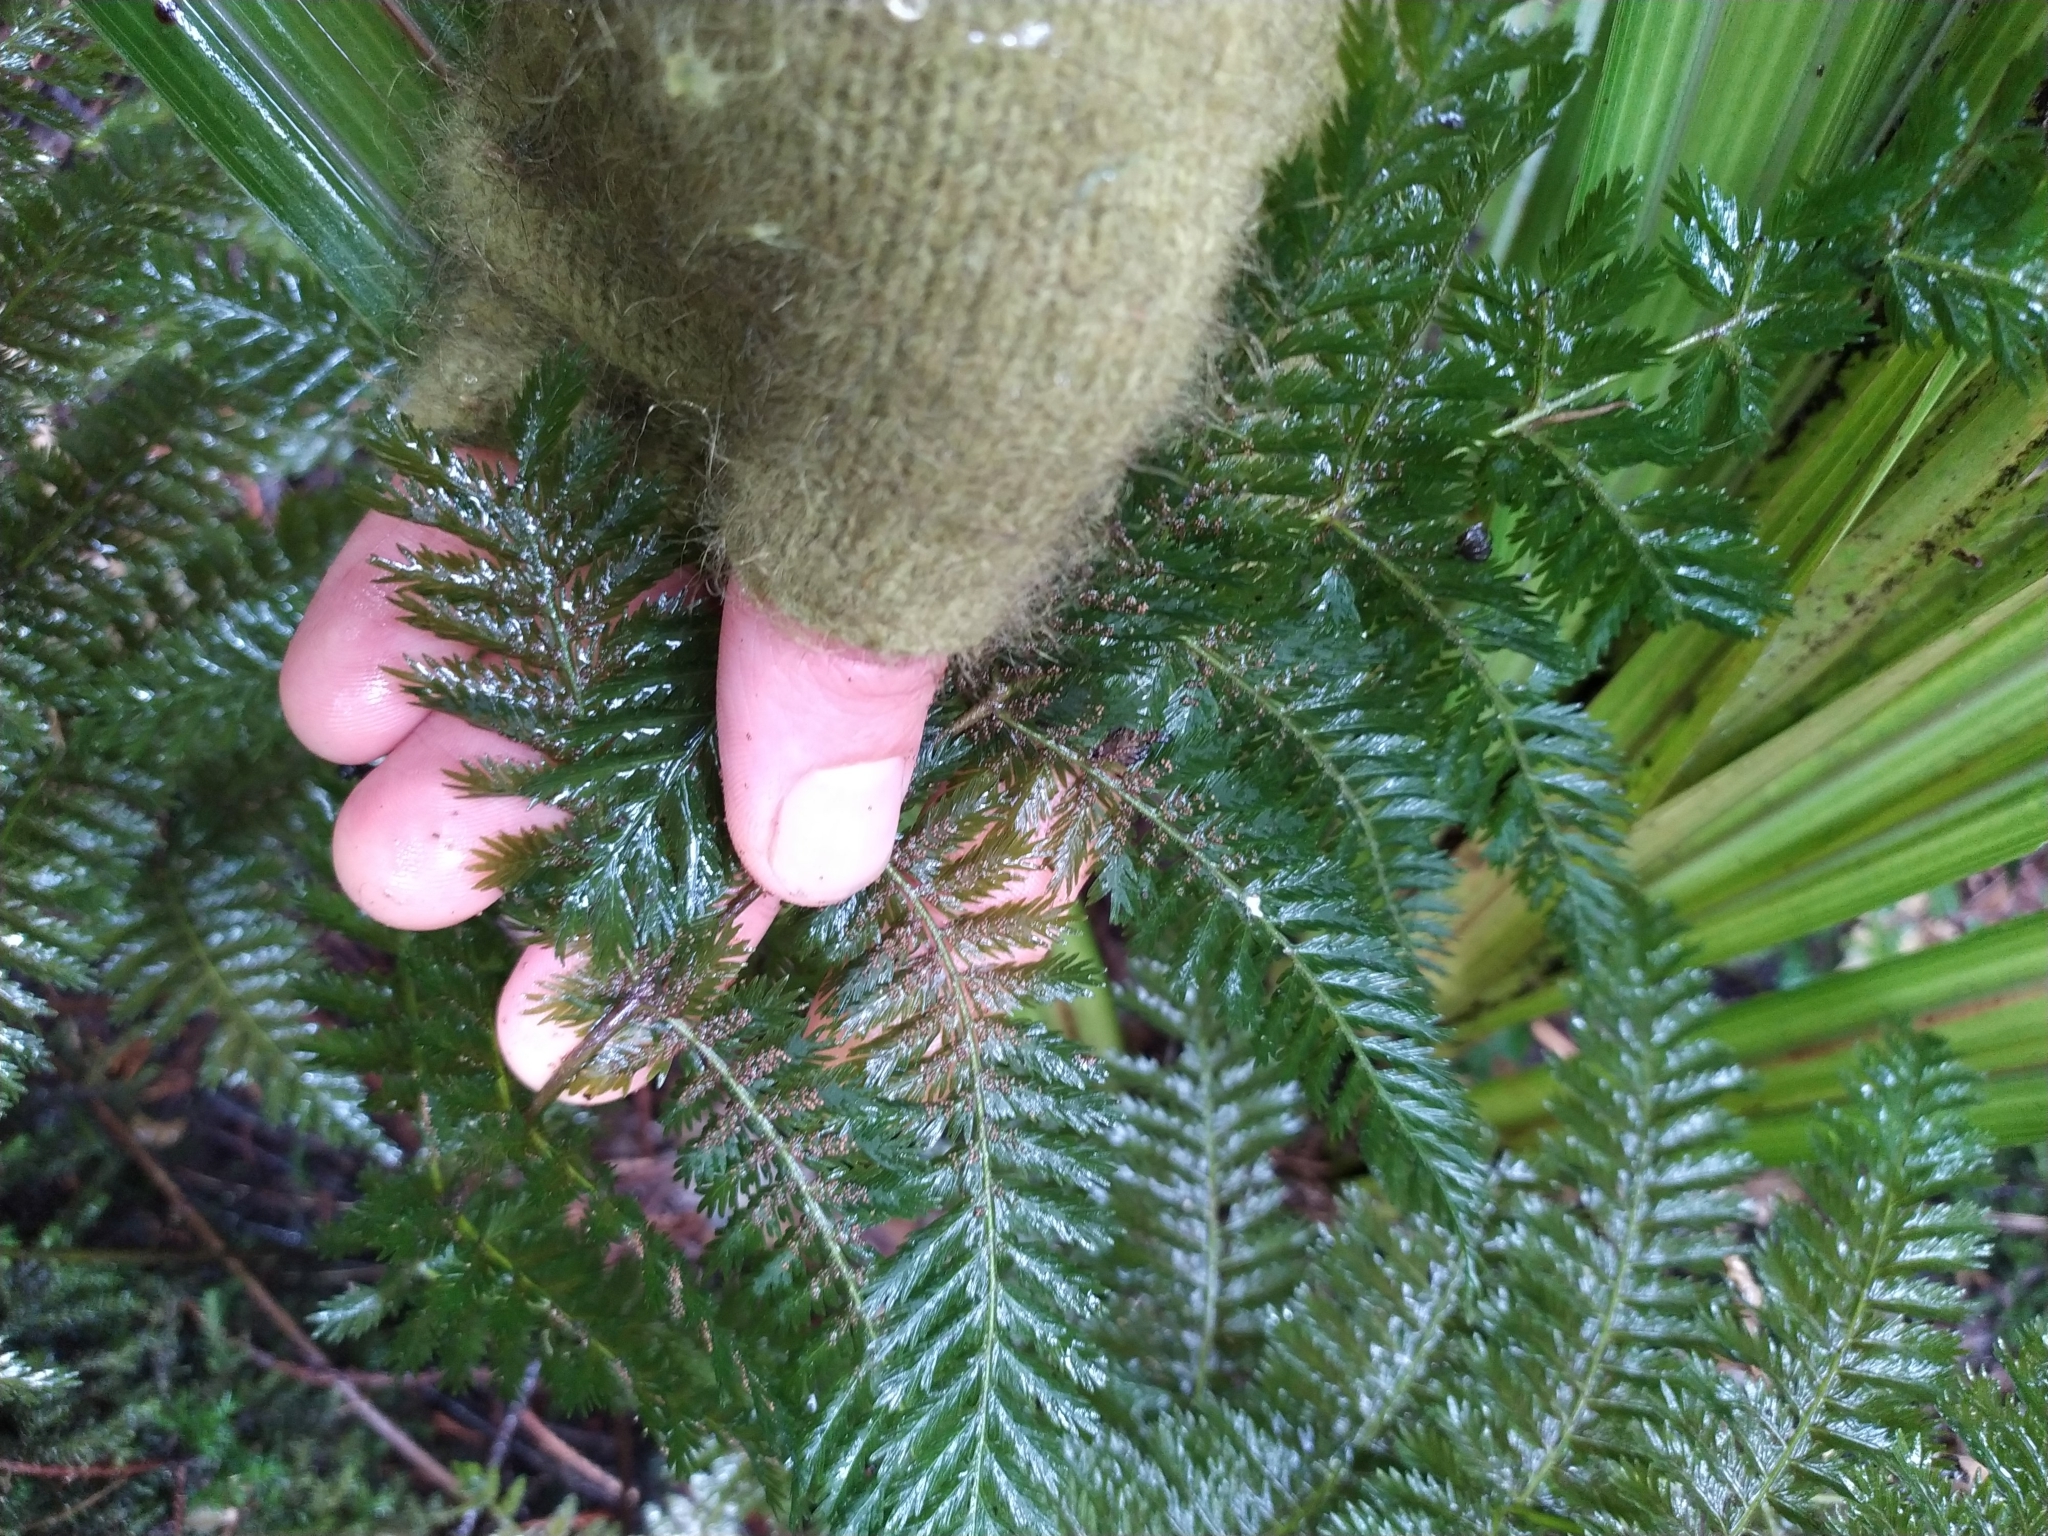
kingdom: Plantae
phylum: Tracheophyta
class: Polypodiopsida
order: Osmundales
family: Osmundaceae
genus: Leptopteris
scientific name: Leptopteris hymenophylloides
